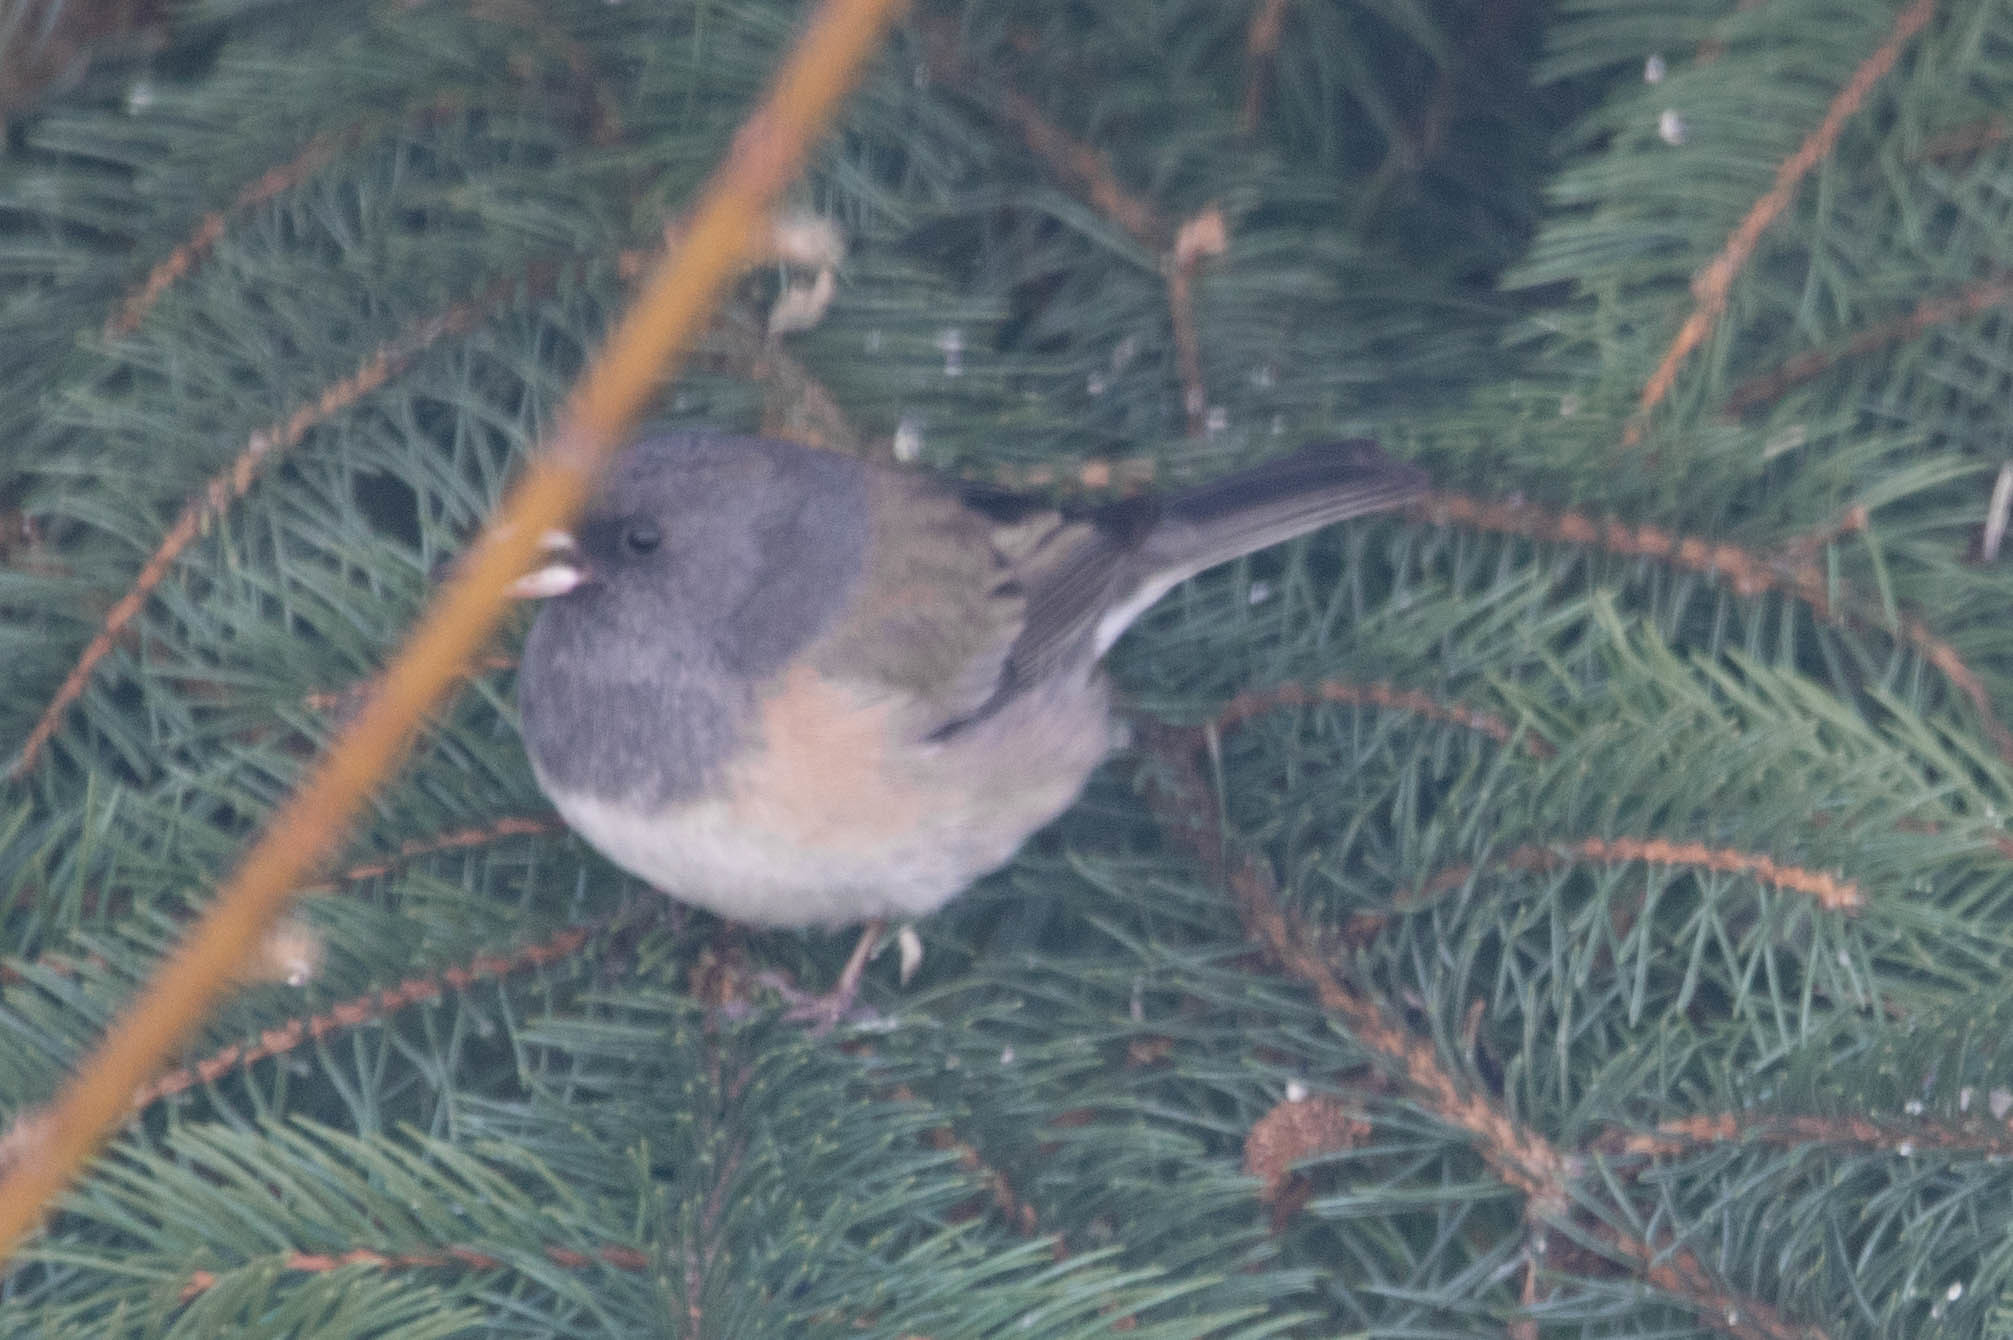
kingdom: Animalia
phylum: Chordata
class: Aves
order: Passeriformes
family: Passerellidae
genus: Junco
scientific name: Junco hyemalis
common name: Dark-eyed junco
